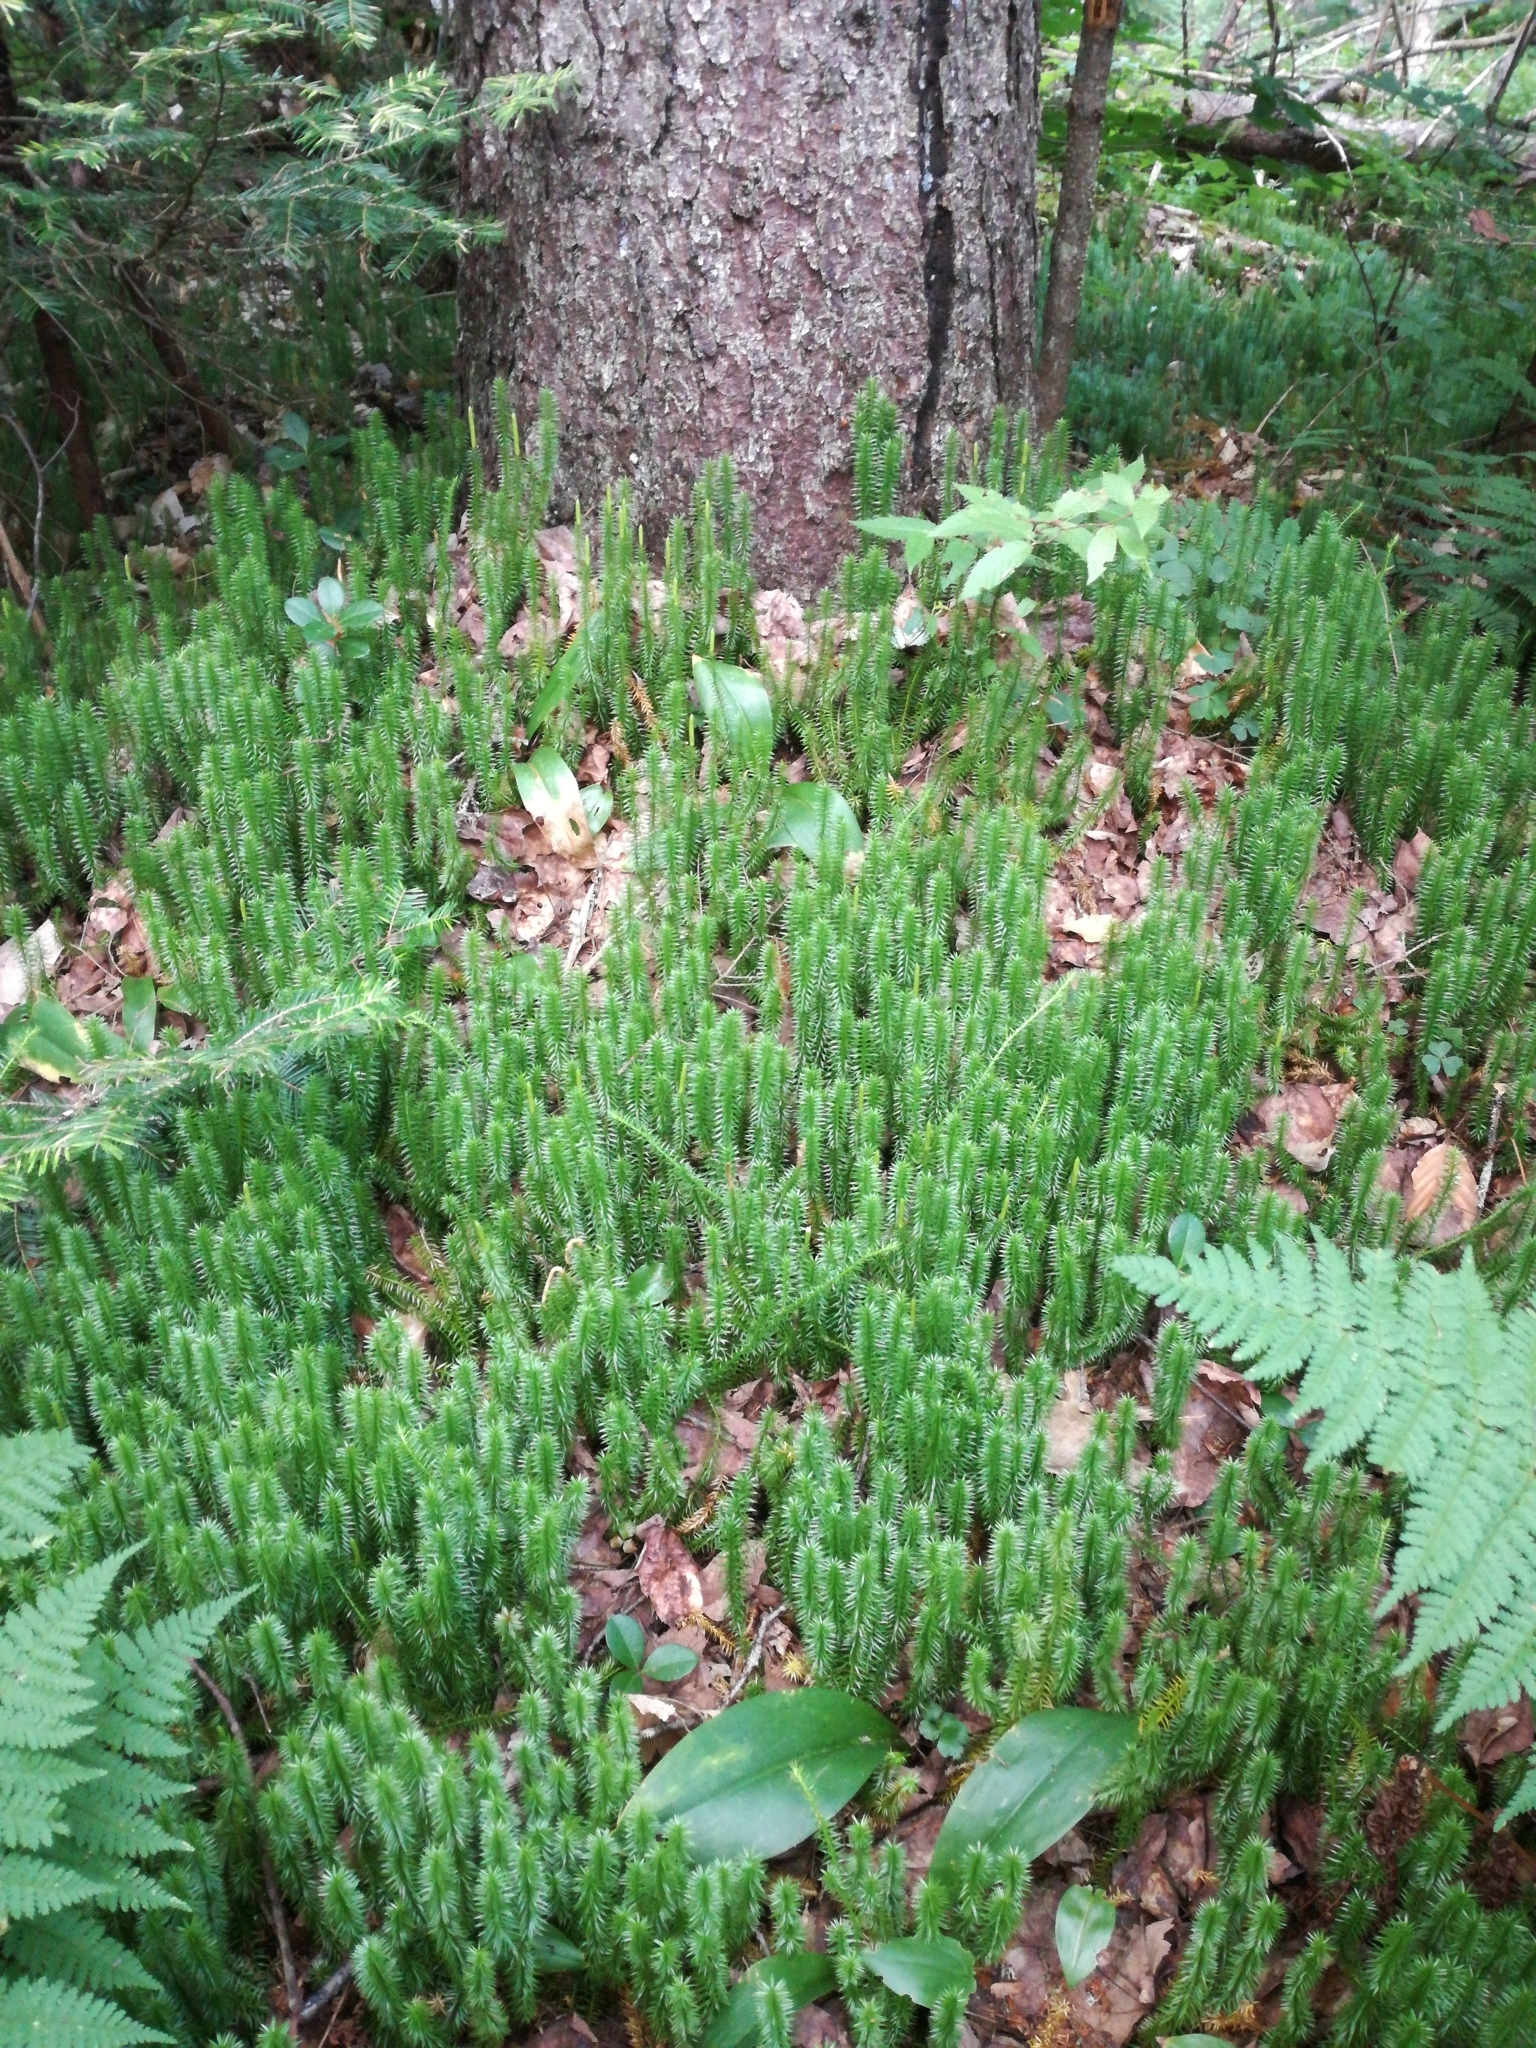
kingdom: Plantae
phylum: Tracheophyta
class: Lycopodiopsida
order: Lycopodiales
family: Lycopodiaceae
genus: Spinulum
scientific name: Spinulum annotinum
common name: Interrupted club-moss
